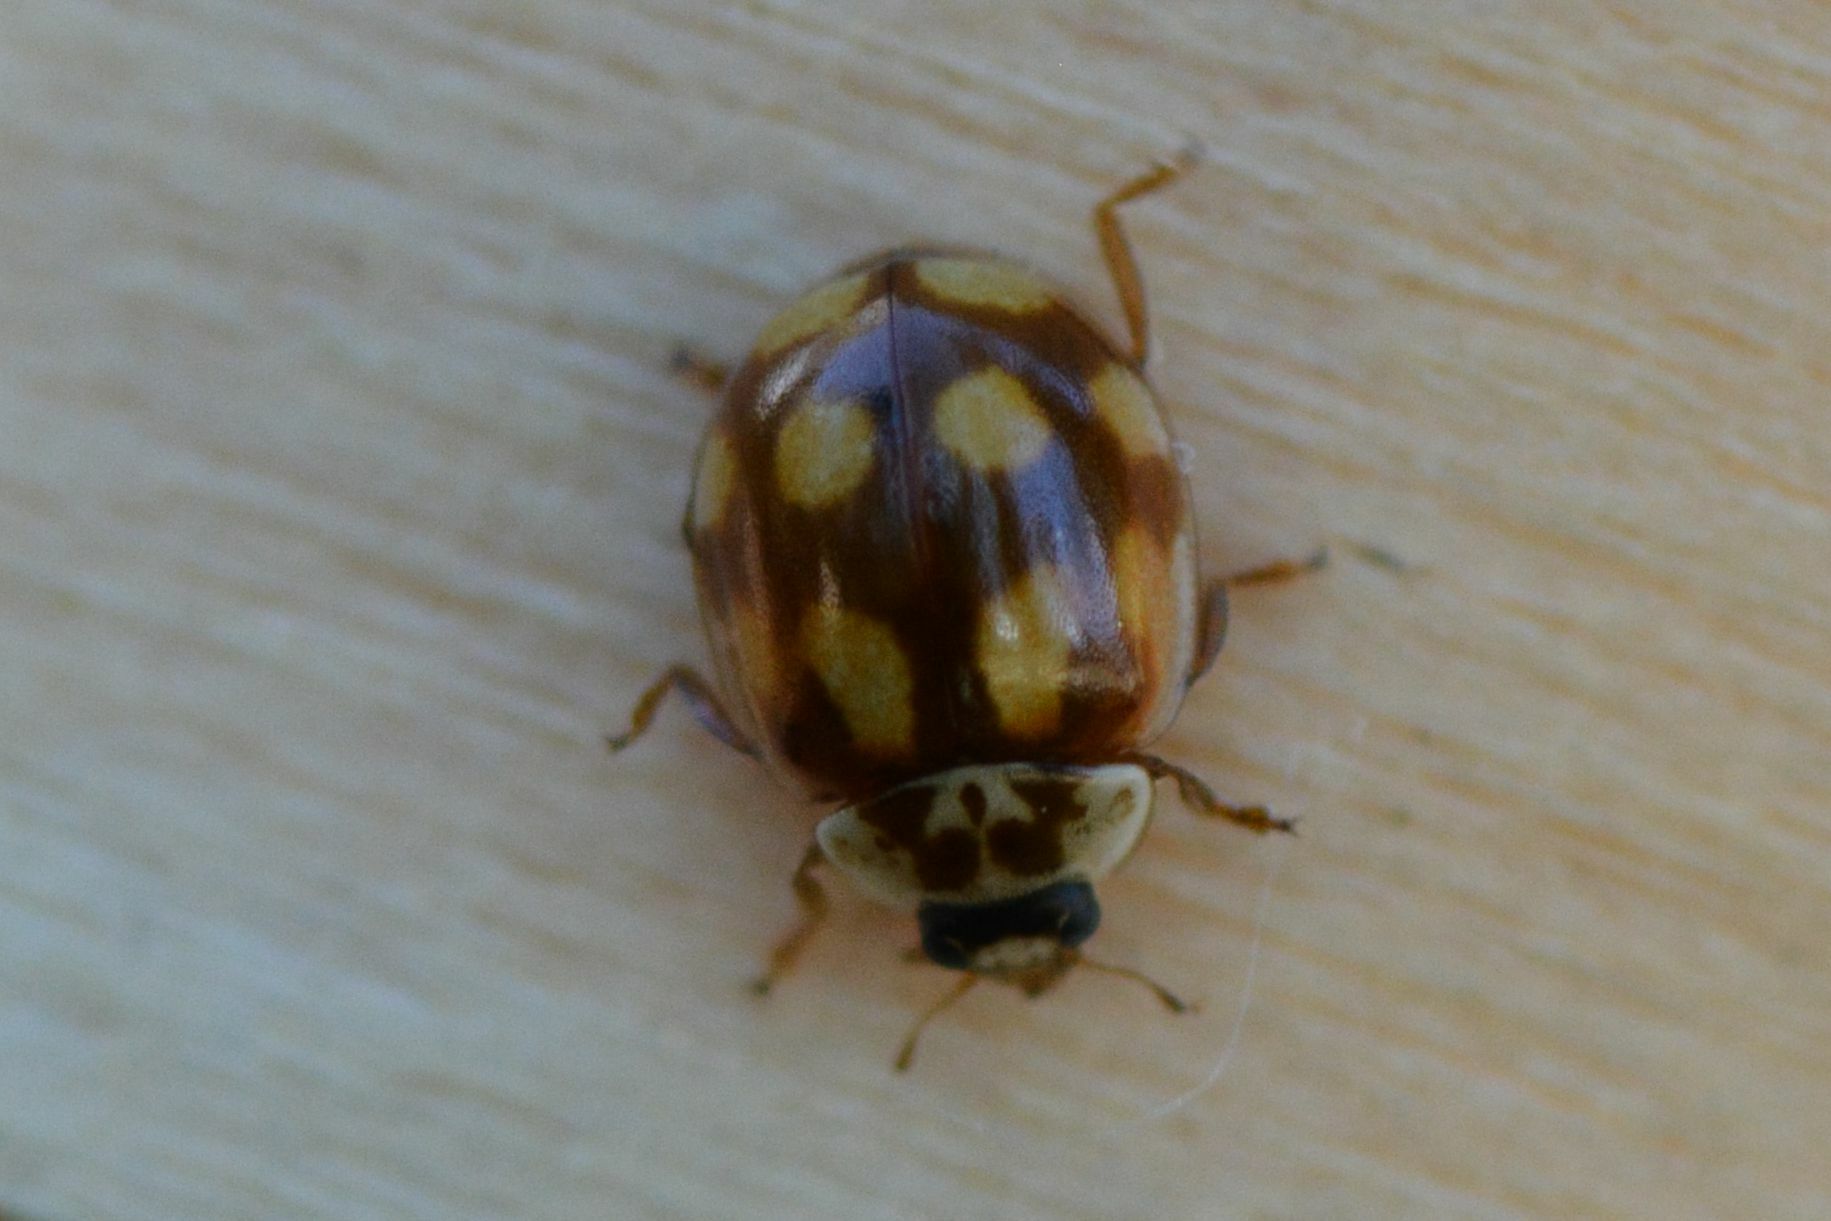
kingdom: Animalia
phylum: Arthropoda
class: Insecta
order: Coleoptera
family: Coccinellidae
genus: Adalia
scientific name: Adalia decempunctata
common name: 10-spot ladybird
